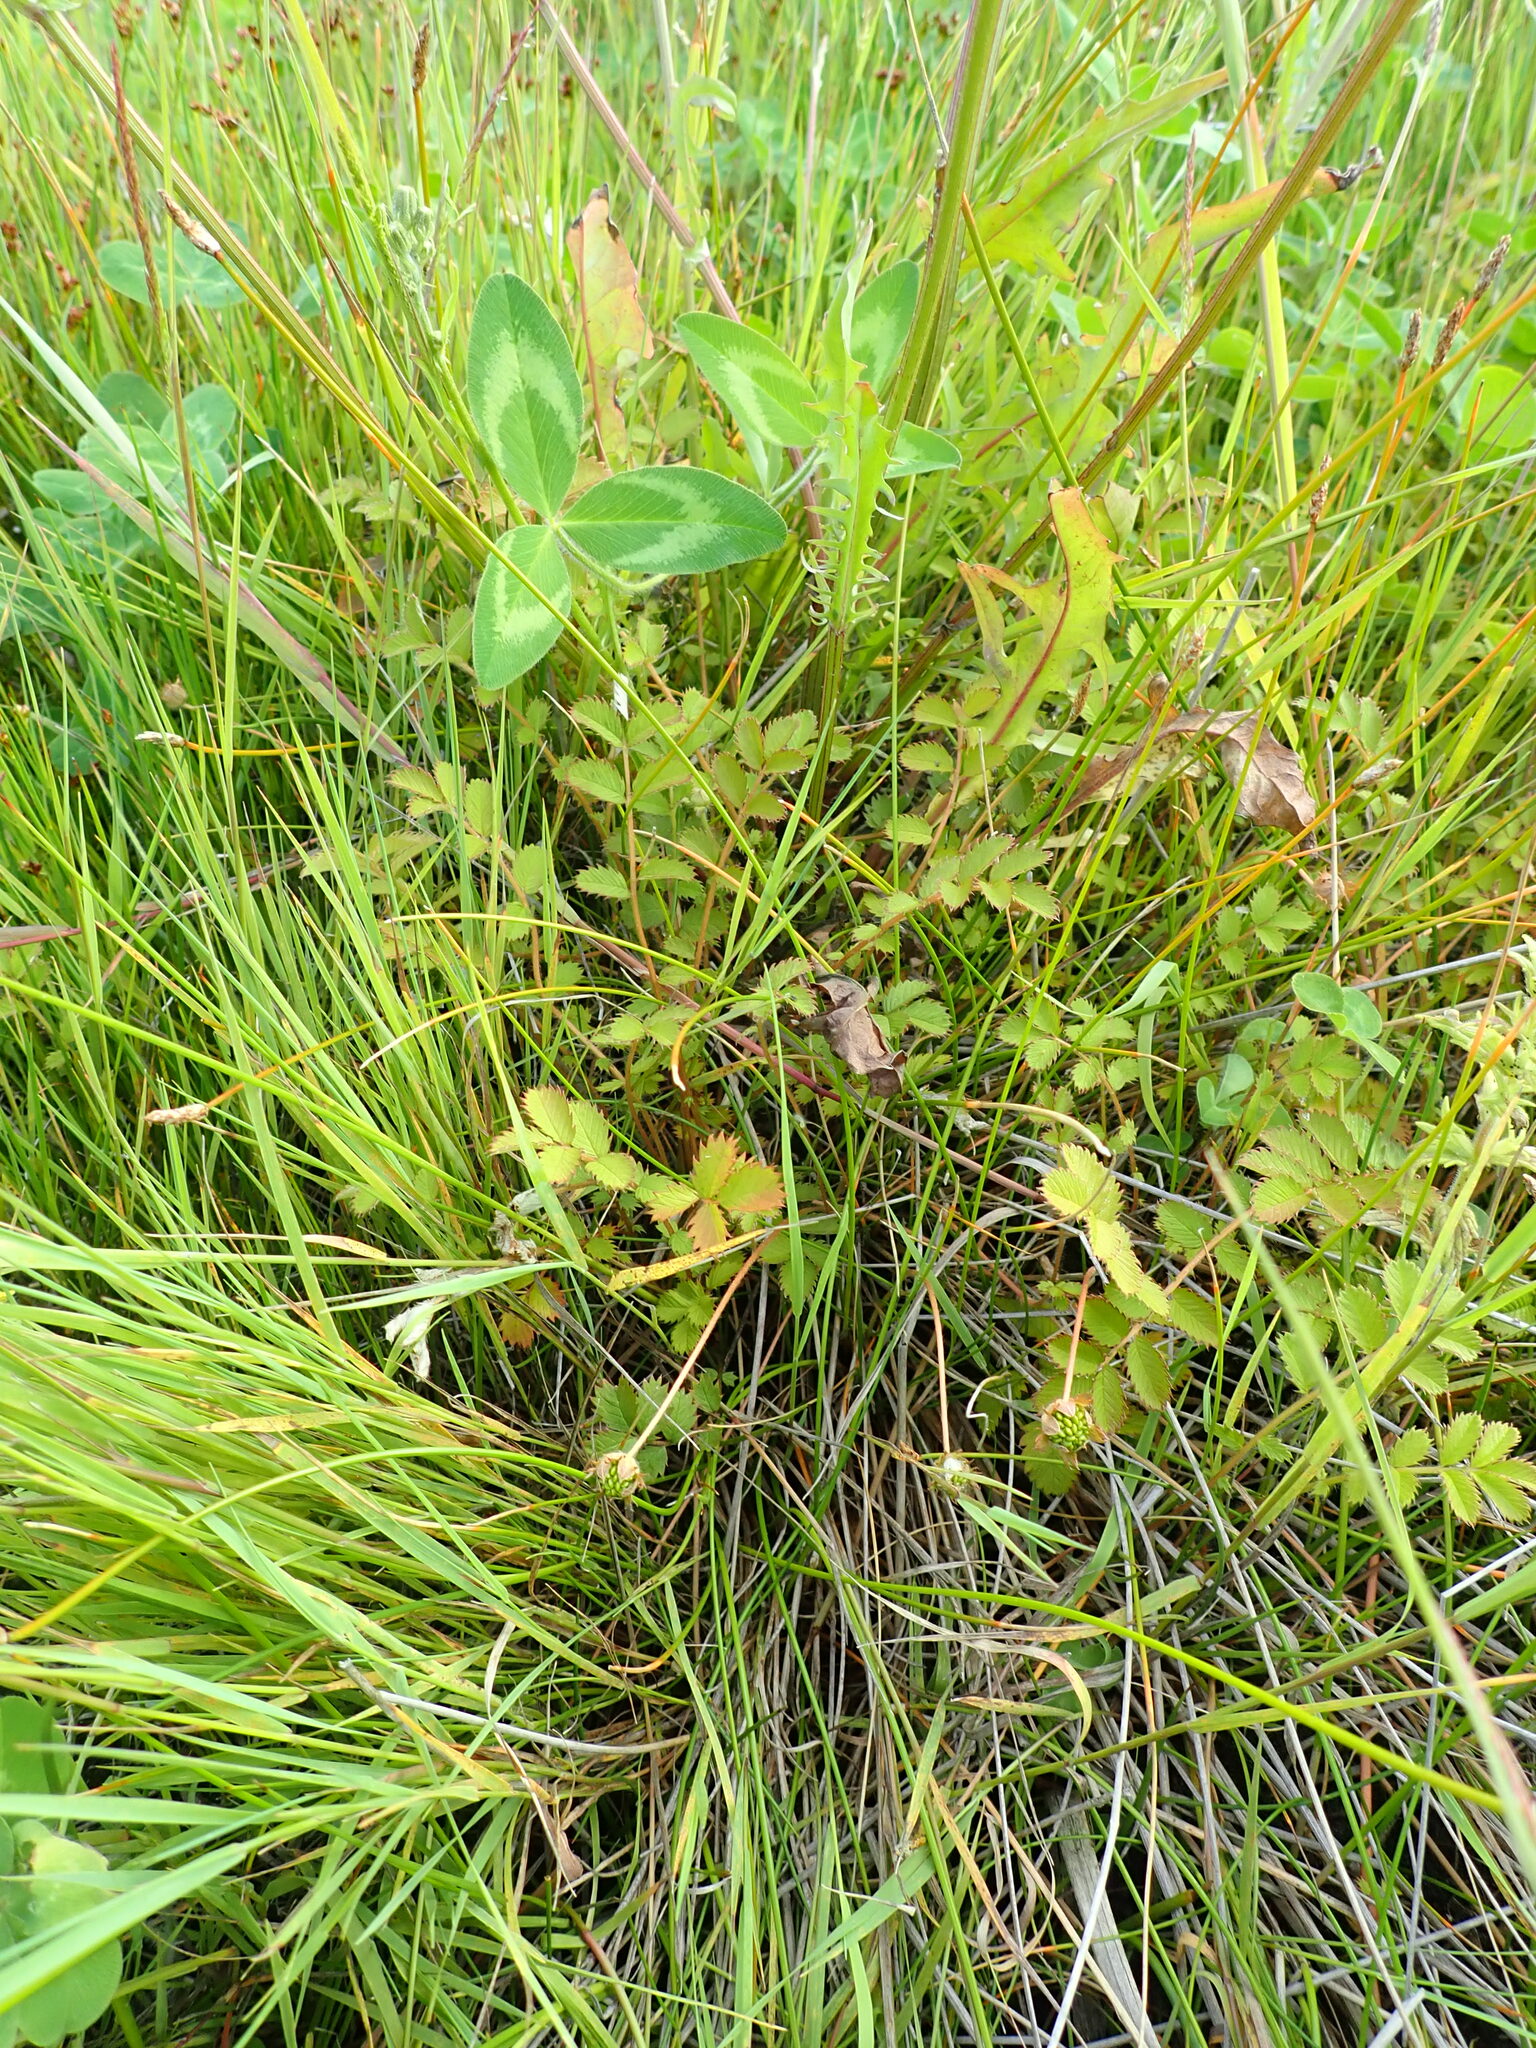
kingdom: Plantae
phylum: Tracheophyta
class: Magnoliopsida
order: Rosales
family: Rosaceae
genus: Argentina
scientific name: Argentina anserinoides
